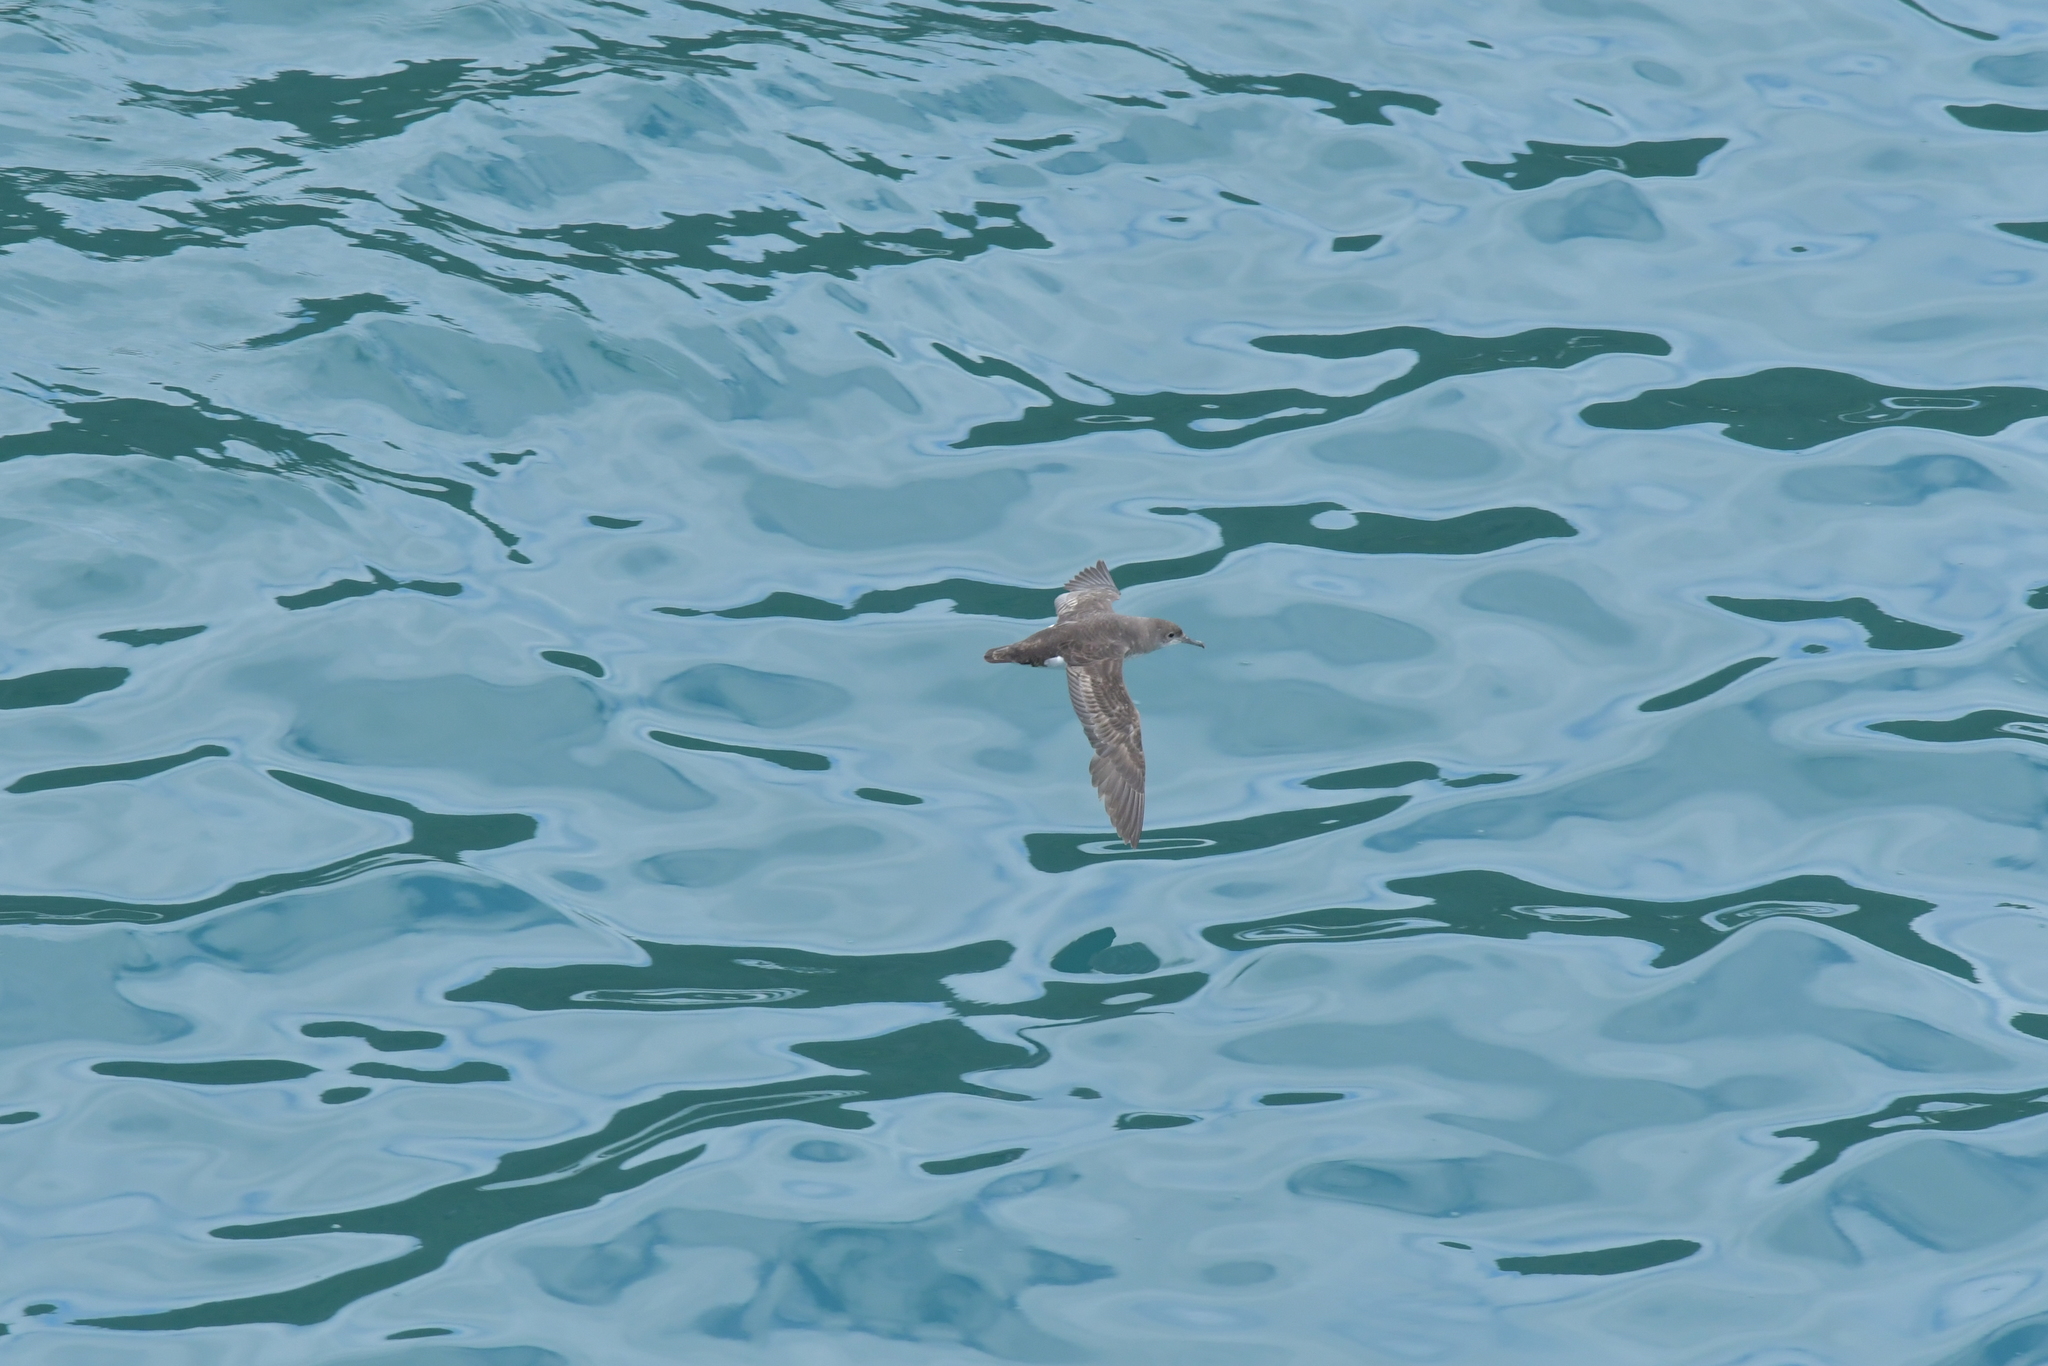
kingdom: Animalia
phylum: Chordata
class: Aves
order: Procellariiformes
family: Procellariidae
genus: Puffinus
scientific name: Puffinus gavia
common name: Fluttering shearwater
